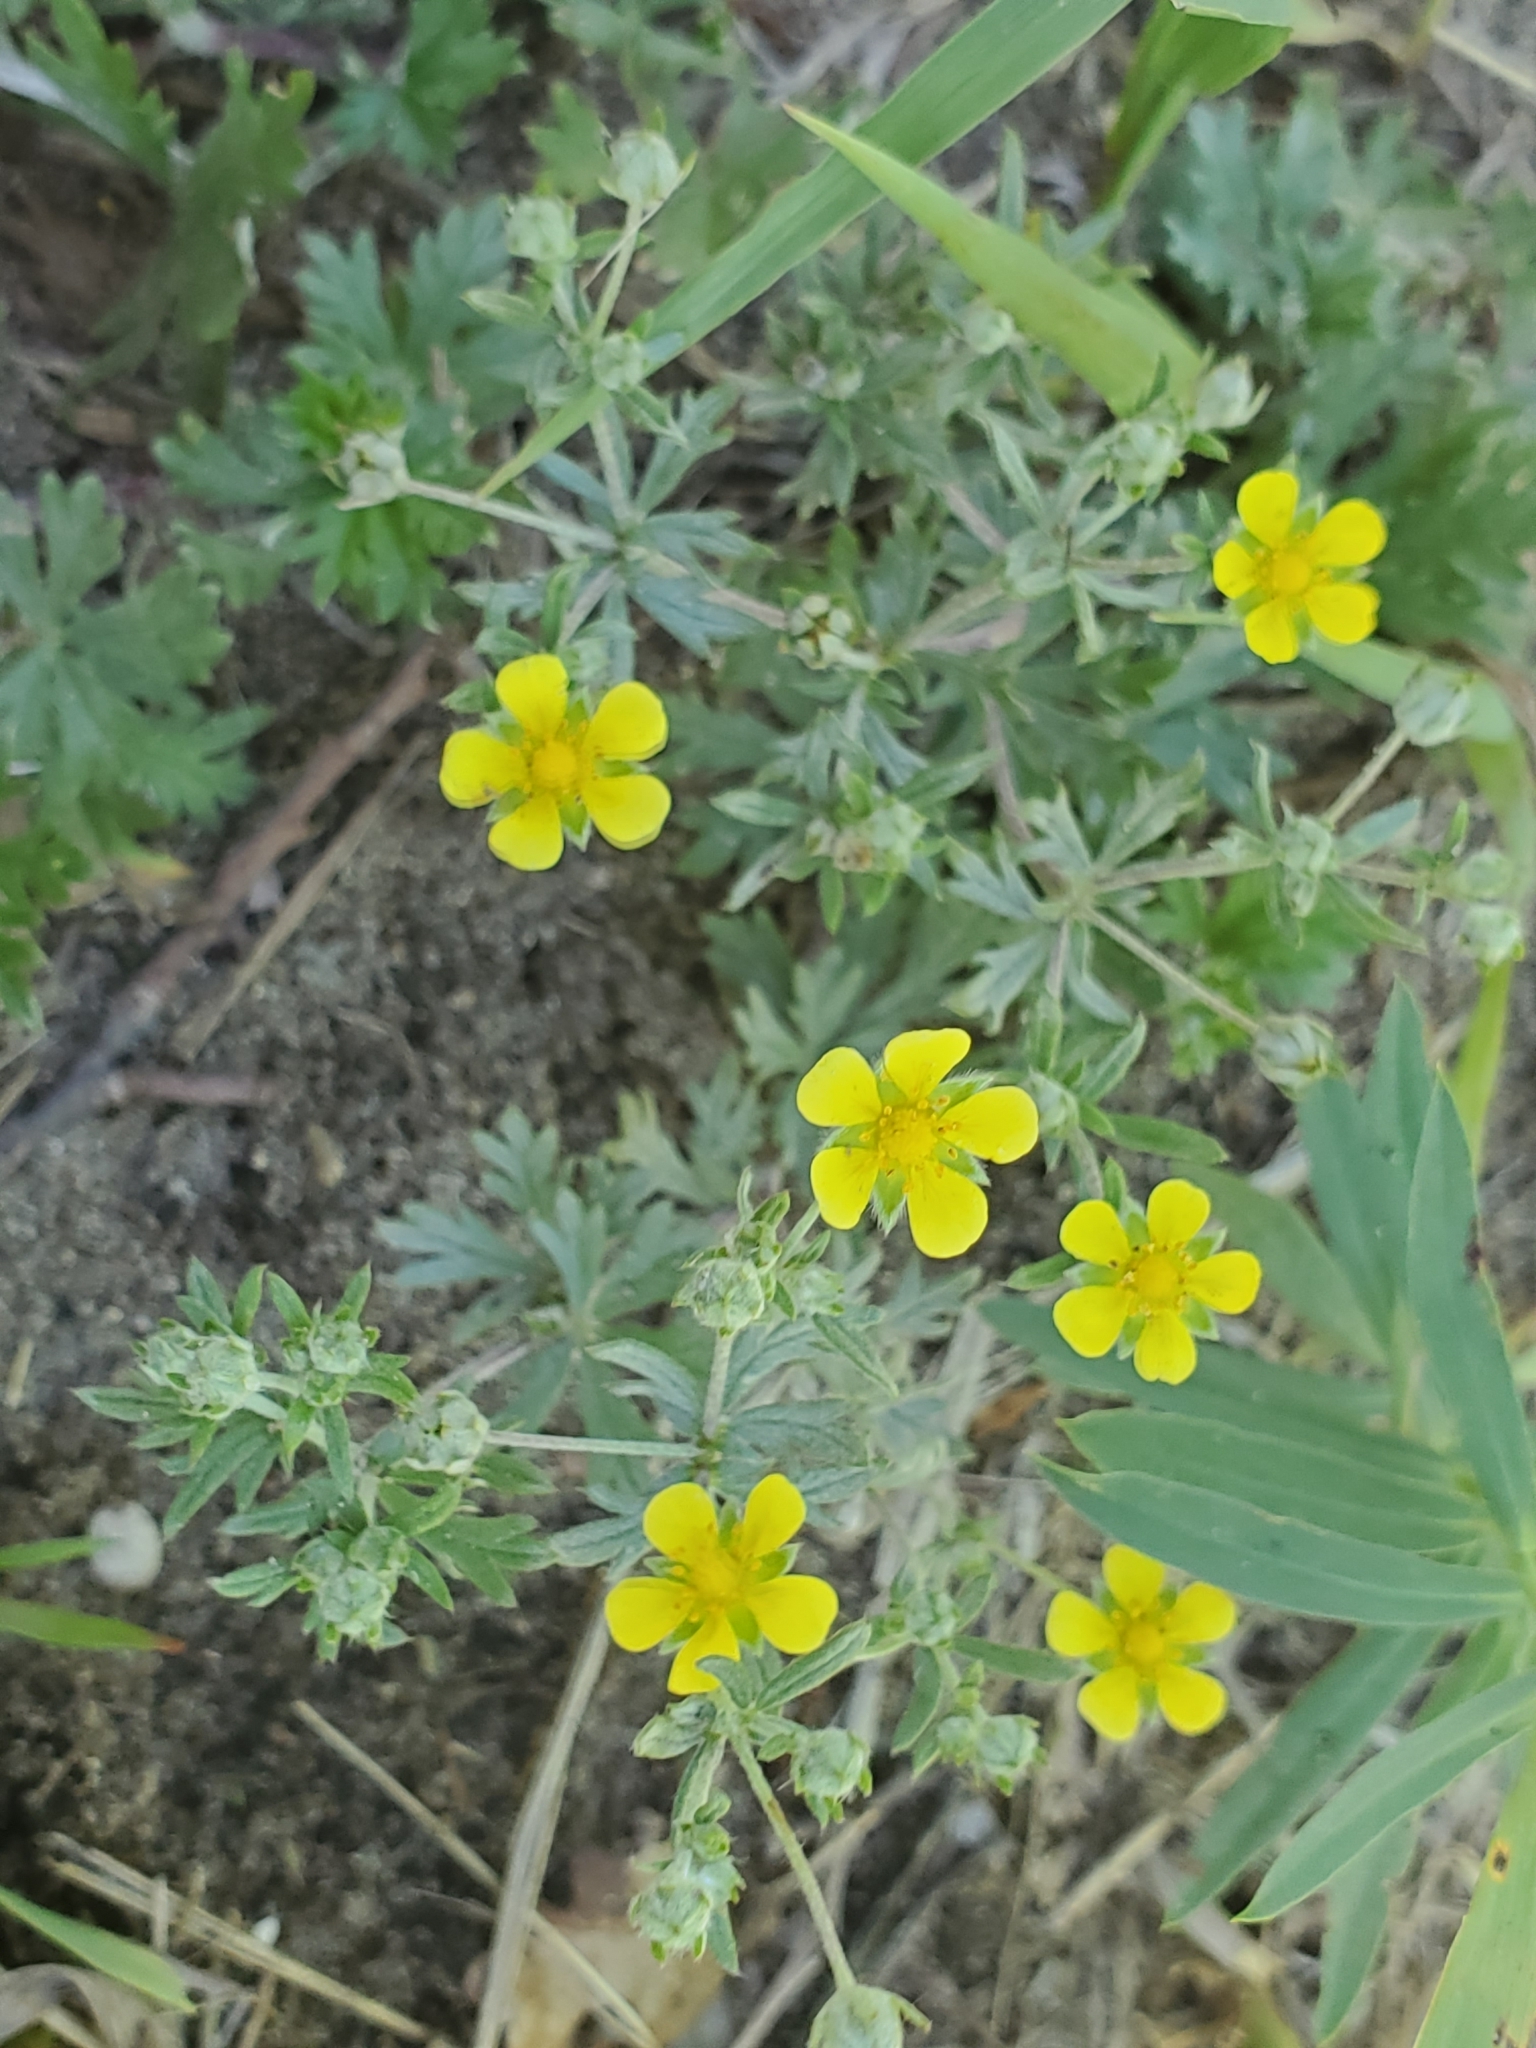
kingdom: Plantae
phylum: Tracheophyta
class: Magnoliopsida
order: Rosales
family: Rosaceae
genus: Potentilla
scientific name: Potentilla argentea
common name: Hoary cinquefoil
